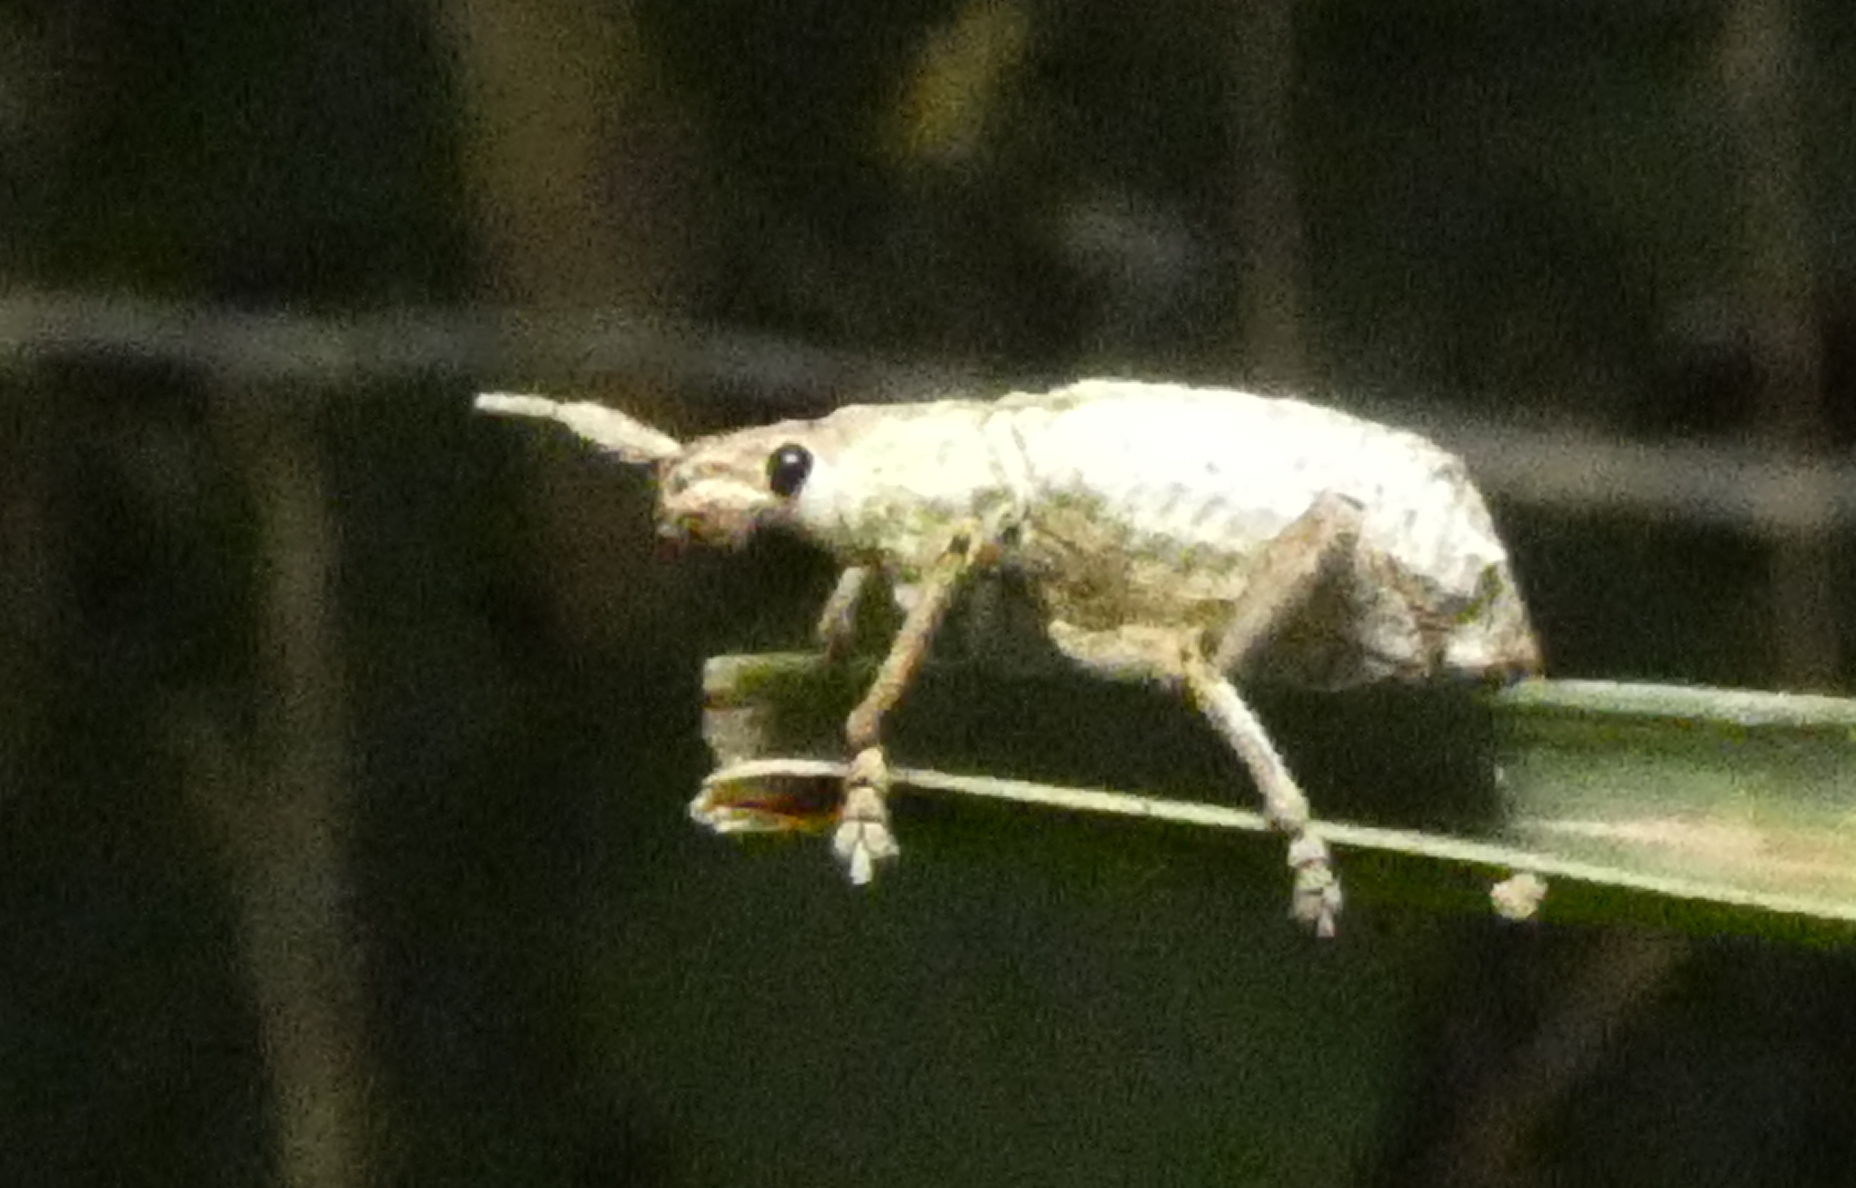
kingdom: Animalia
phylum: Arthropoda
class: Insecta
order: Coleoptera
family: Curculionidae
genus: Compsus
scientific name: Compsus niveus
